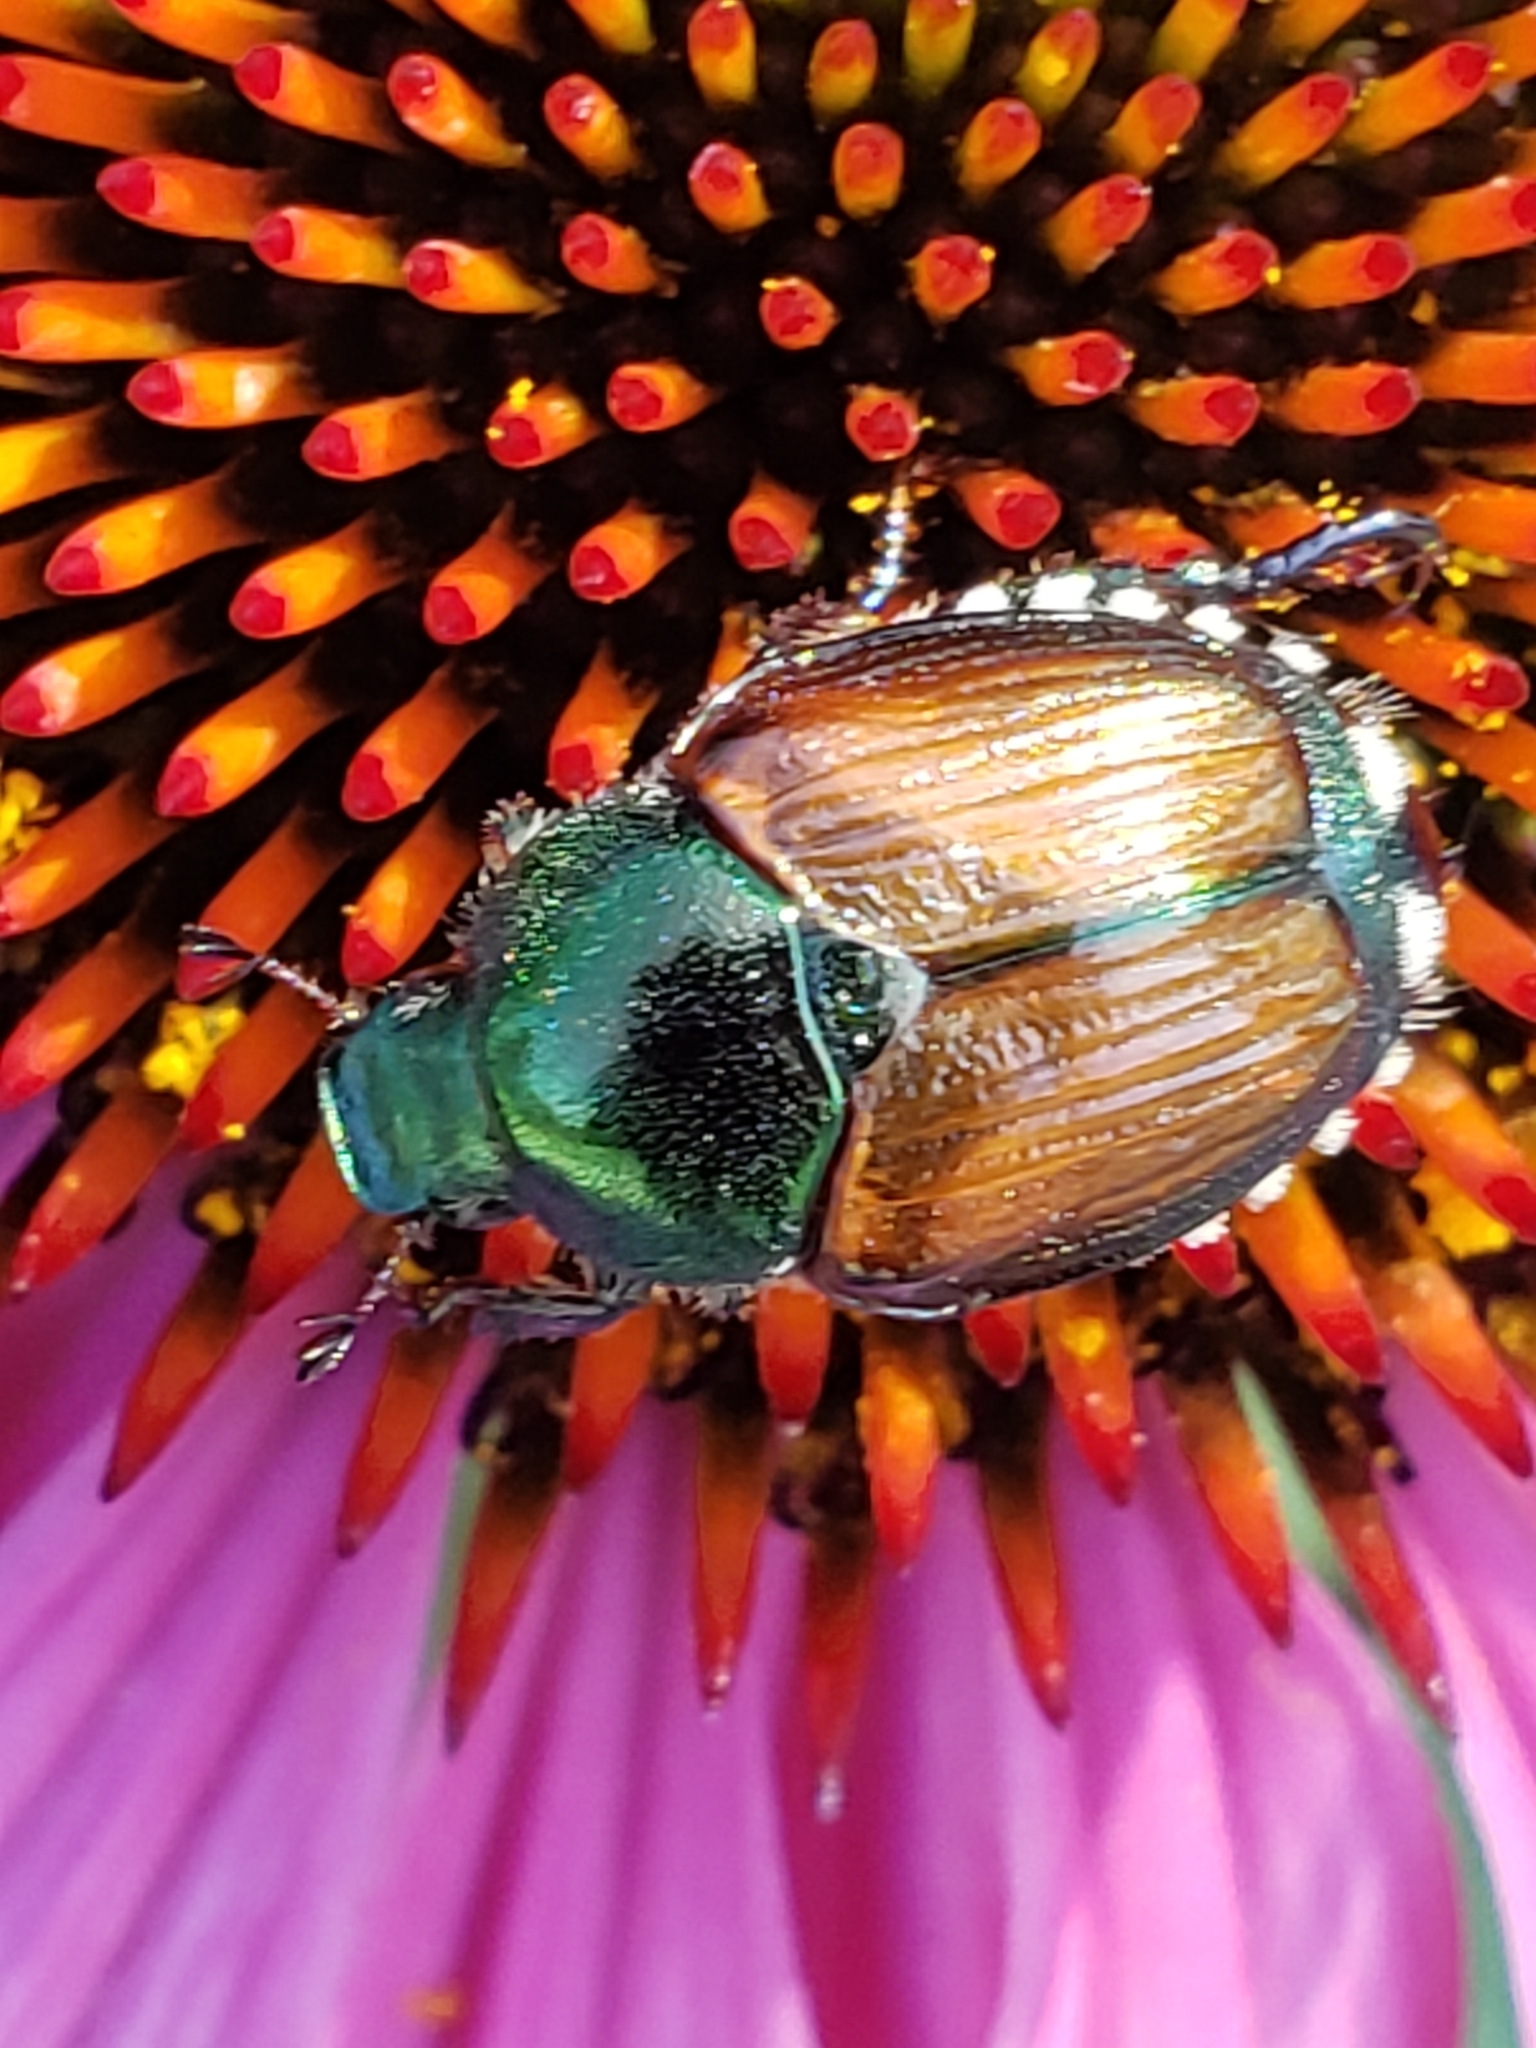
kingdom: Animalia
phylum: Arthropoda
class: Insecta
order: Coleoptera
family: Scarabaeidae
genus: Popillia
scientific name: Popillia japonica
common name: Japanese beetle
